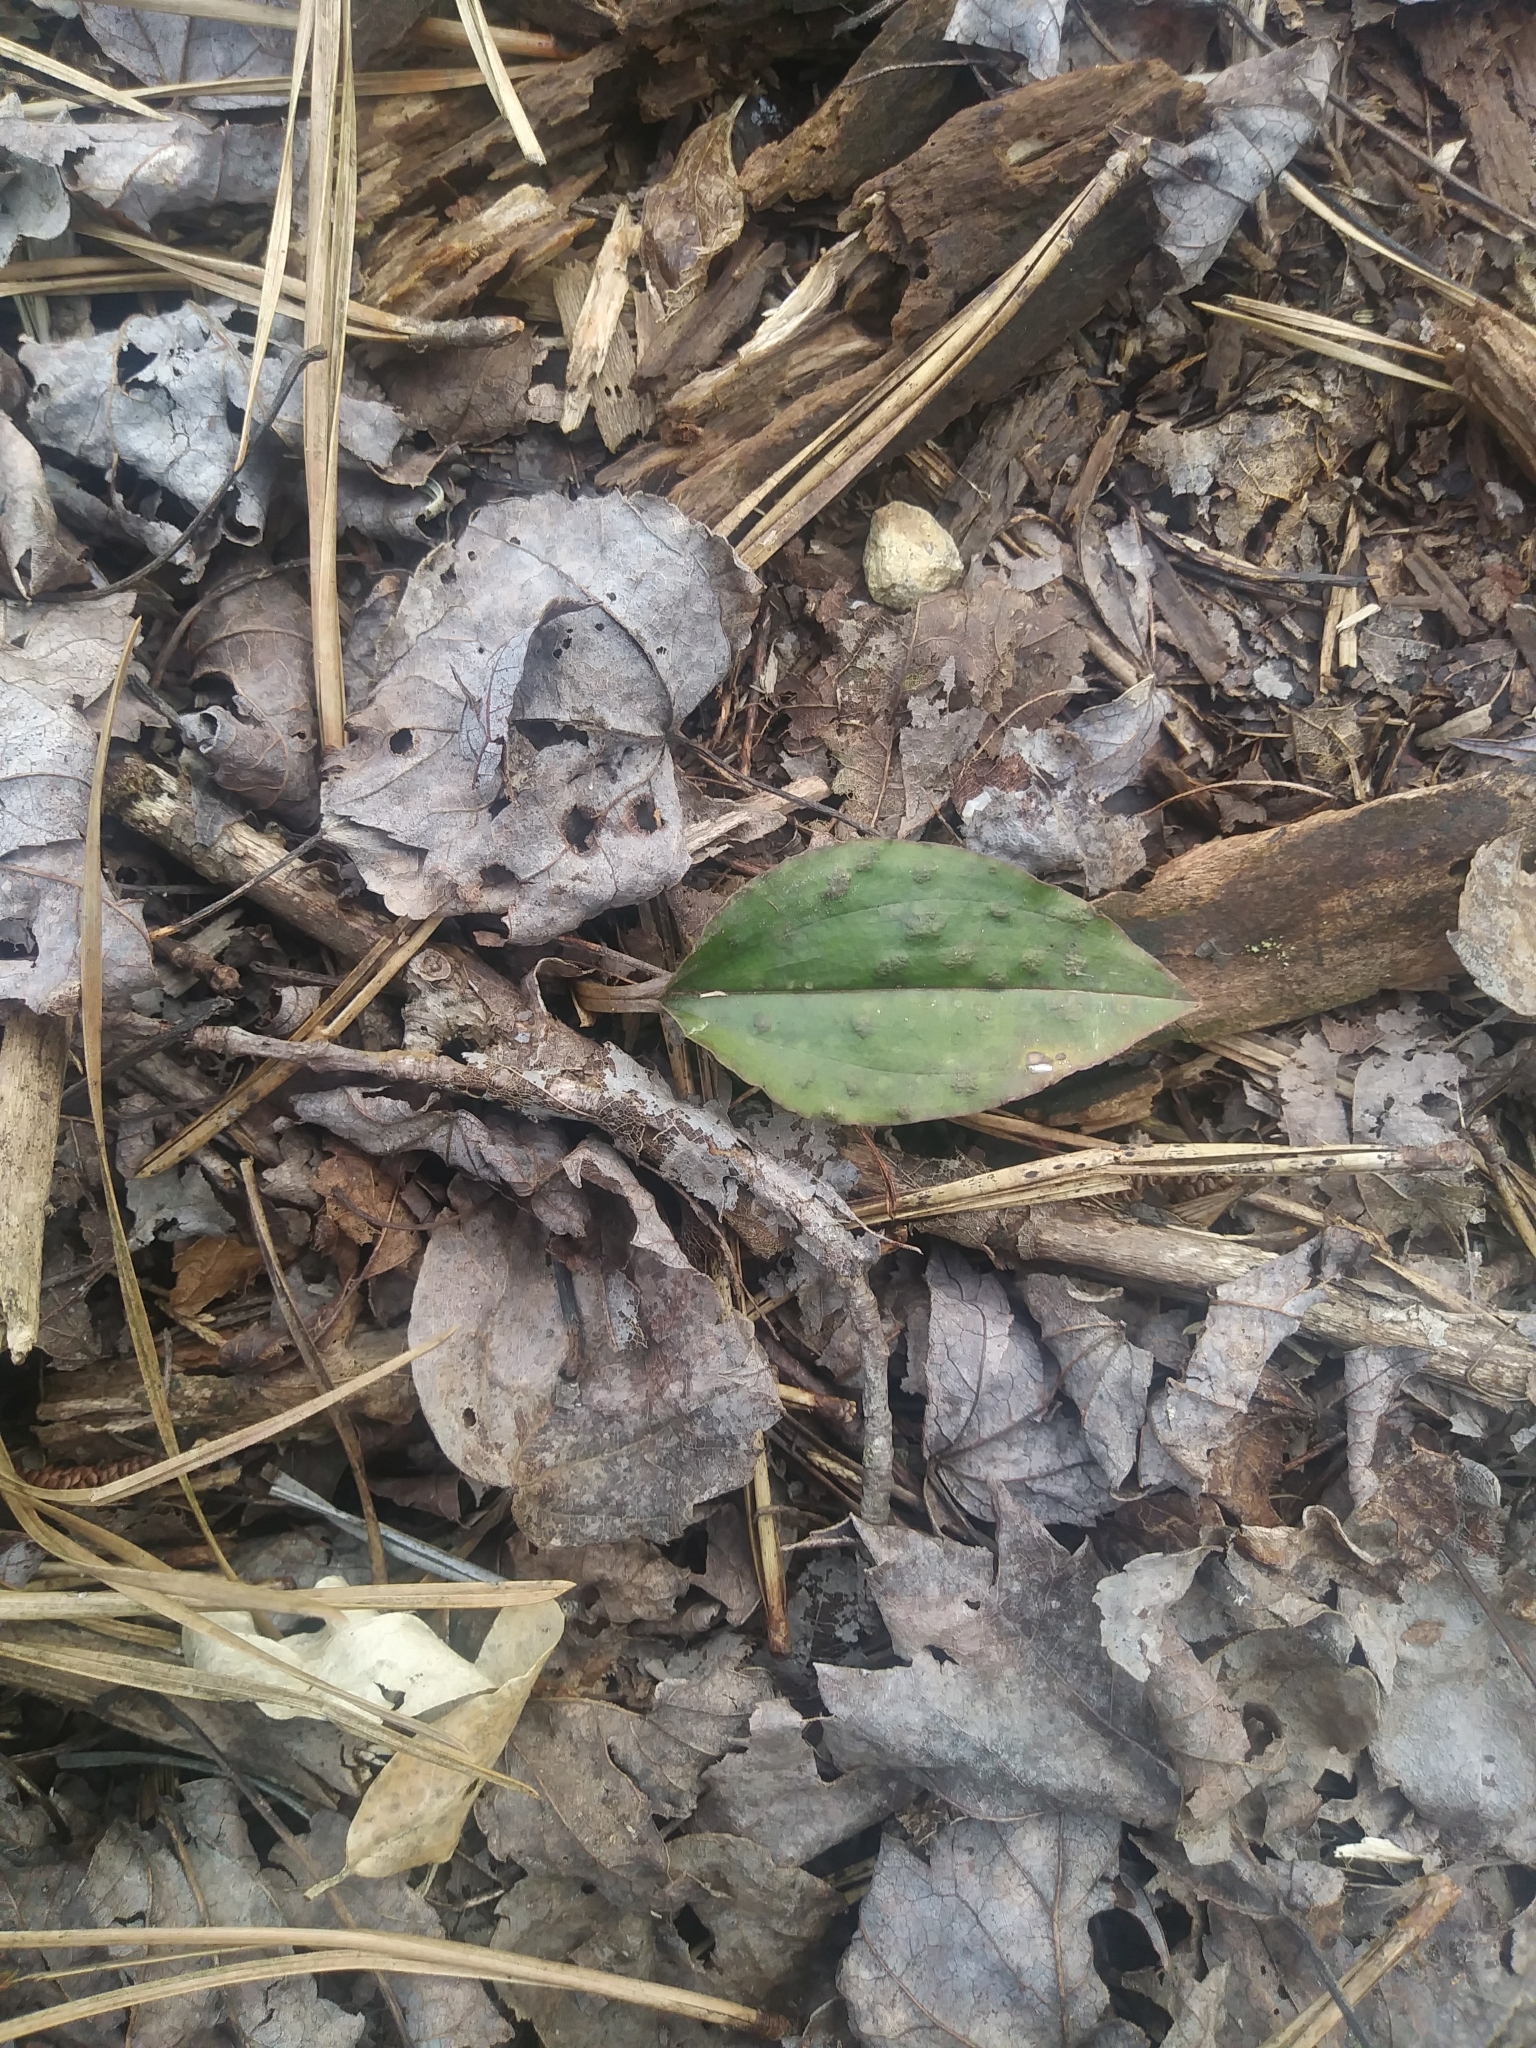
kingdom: Plantae
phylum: Tracheophyta
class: Liliopsida
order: Asparagales
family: Orchidaceae
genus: Tipularia
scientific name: Tipularia discolor
